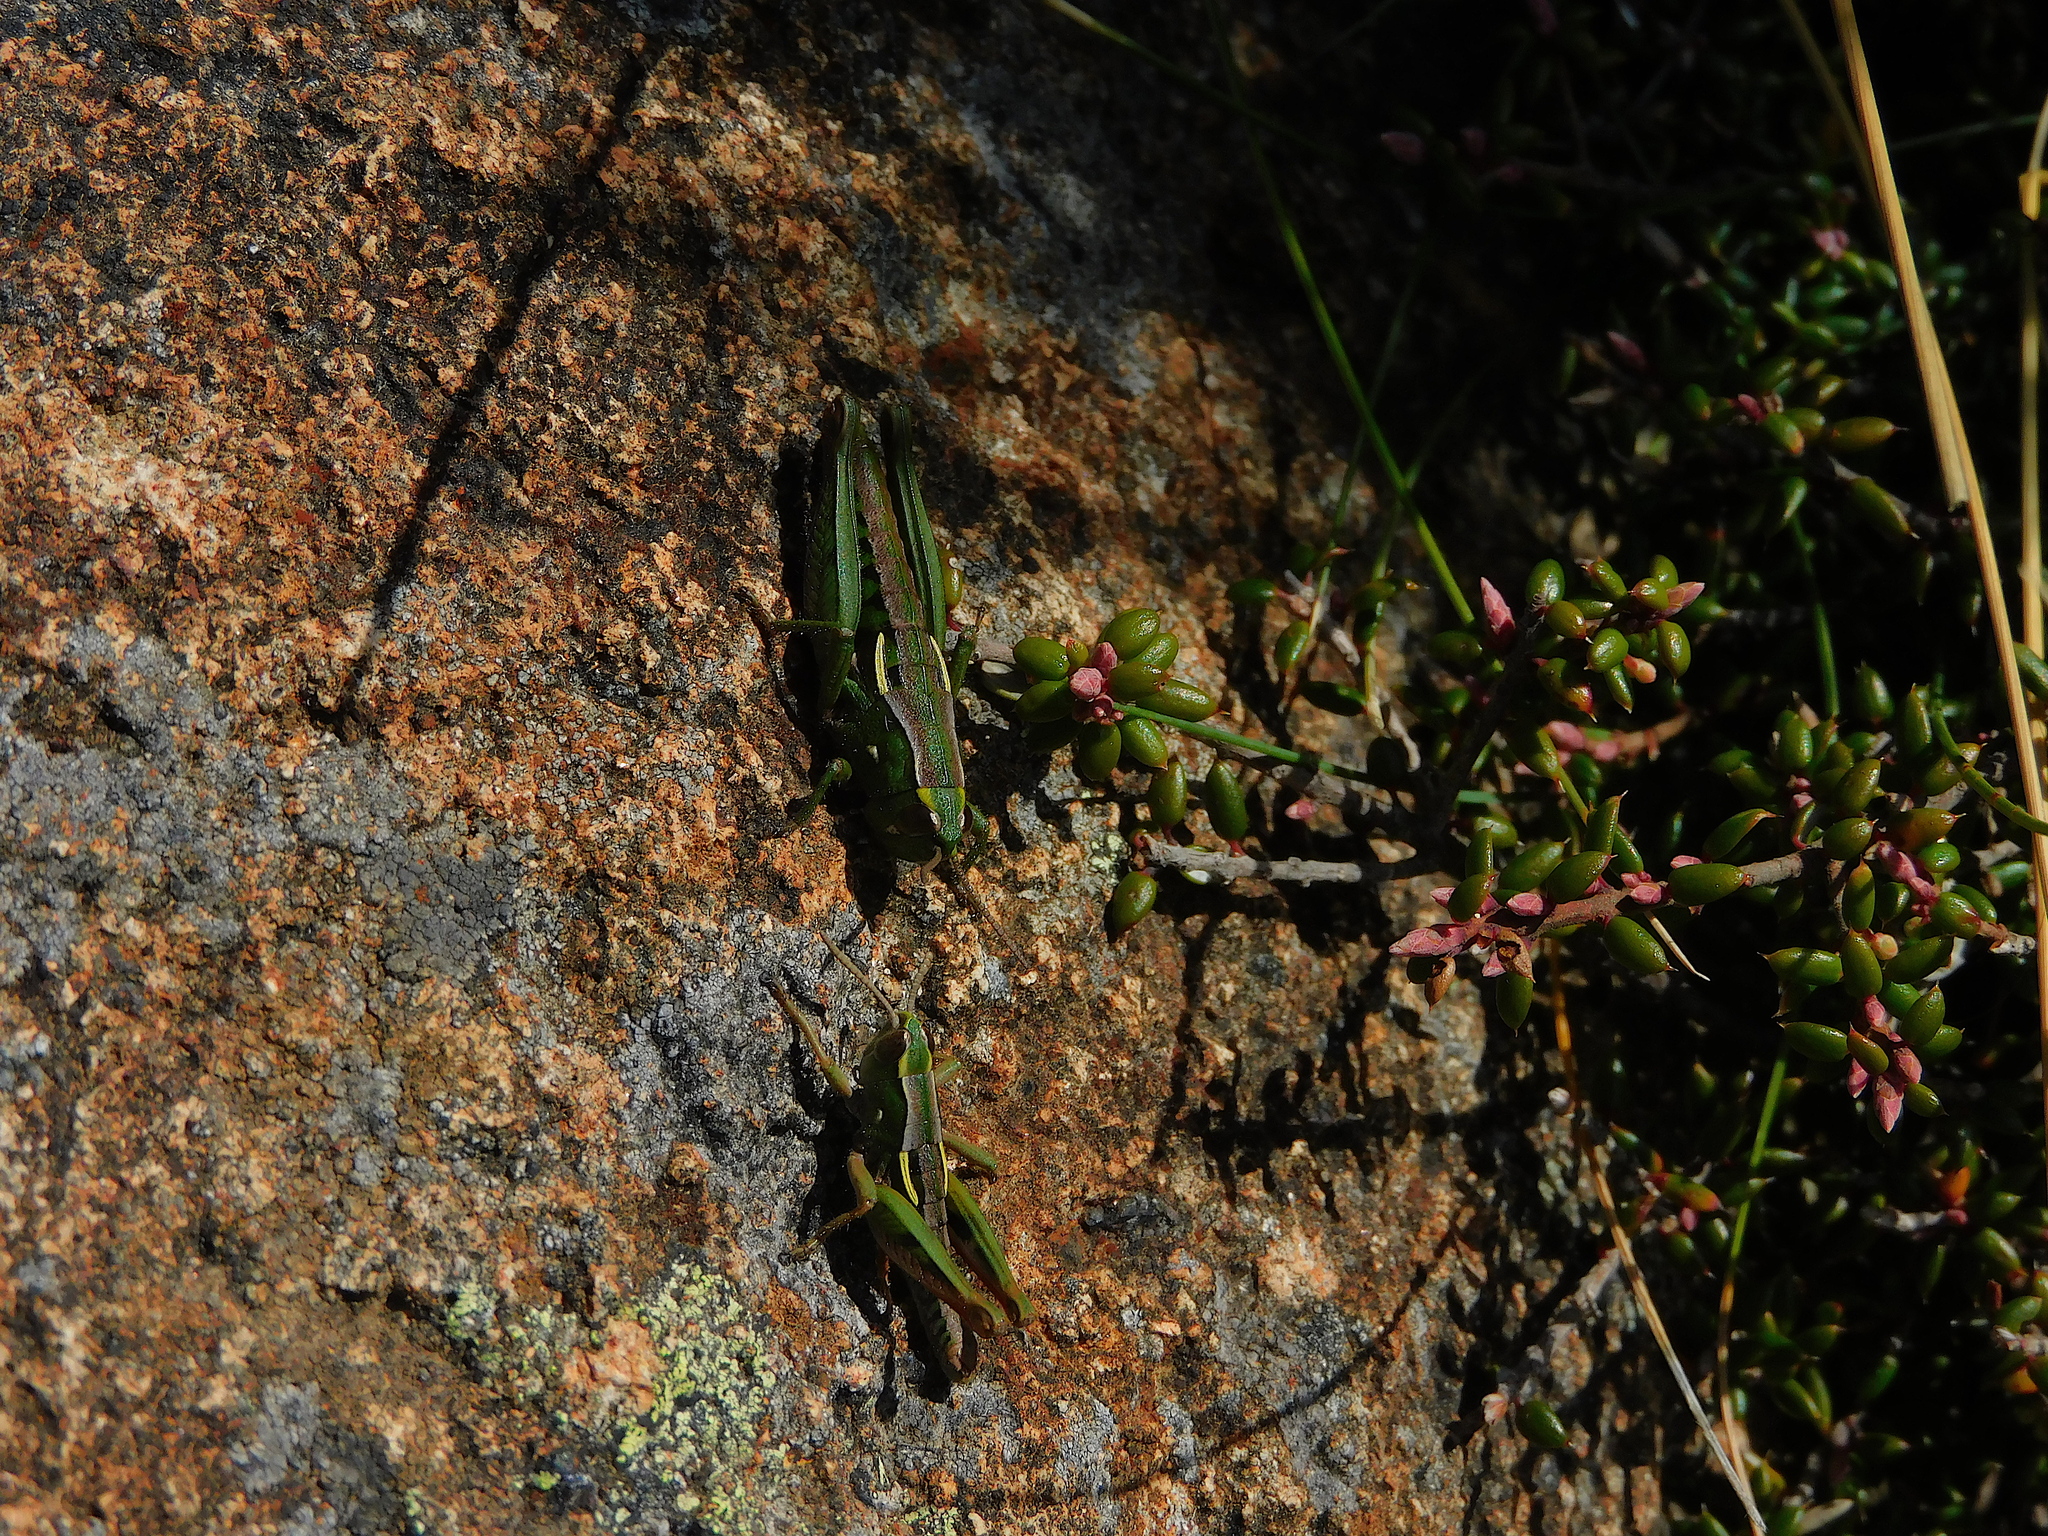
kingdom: Animalia
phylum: Arthropoda
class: Insecta
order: Orthoptera
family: Acrididae
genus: Russalpia
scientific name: Russalpia albertisi
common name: Tassie hopper
